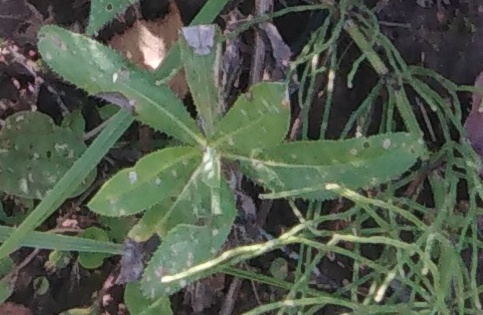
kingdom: Plantae
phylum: Tracheophyta
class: Magnoliopsida
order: Asterales
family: Asteraceae
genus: Cirsium
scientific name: Cirsium arvense
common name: Creeping thistle
